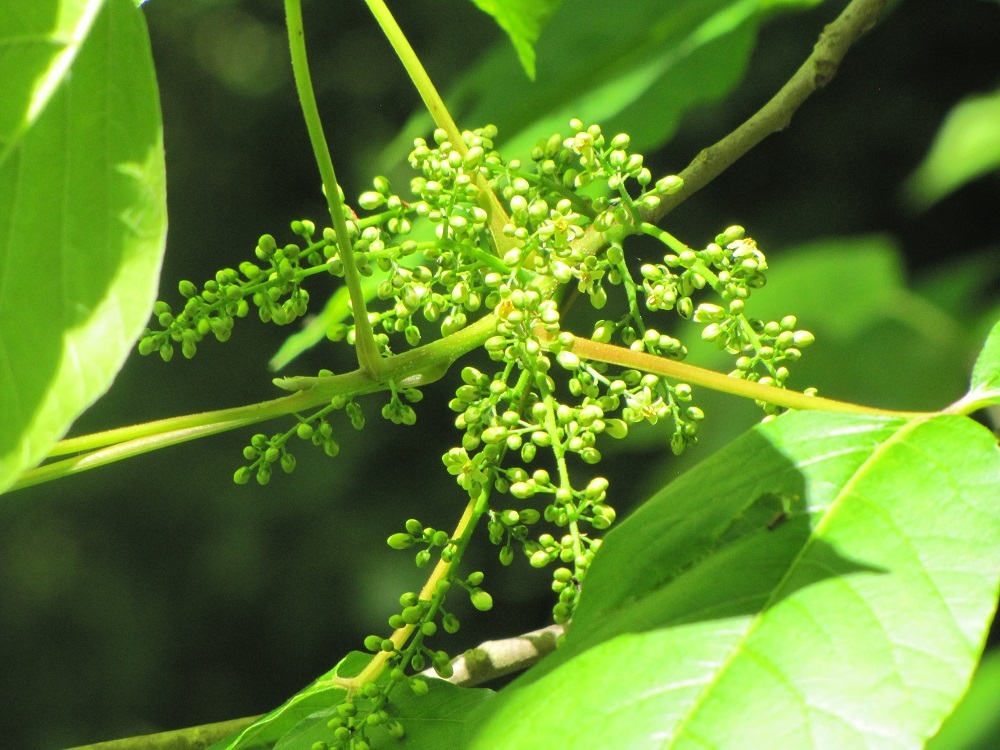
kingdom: Plantae
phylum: Tracheophyta
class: Magnoliopsida
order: Sapindales
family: Anacardiaceae
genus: Toxicodendron
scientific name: Toxicodendron radicans
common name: Poison ivy
